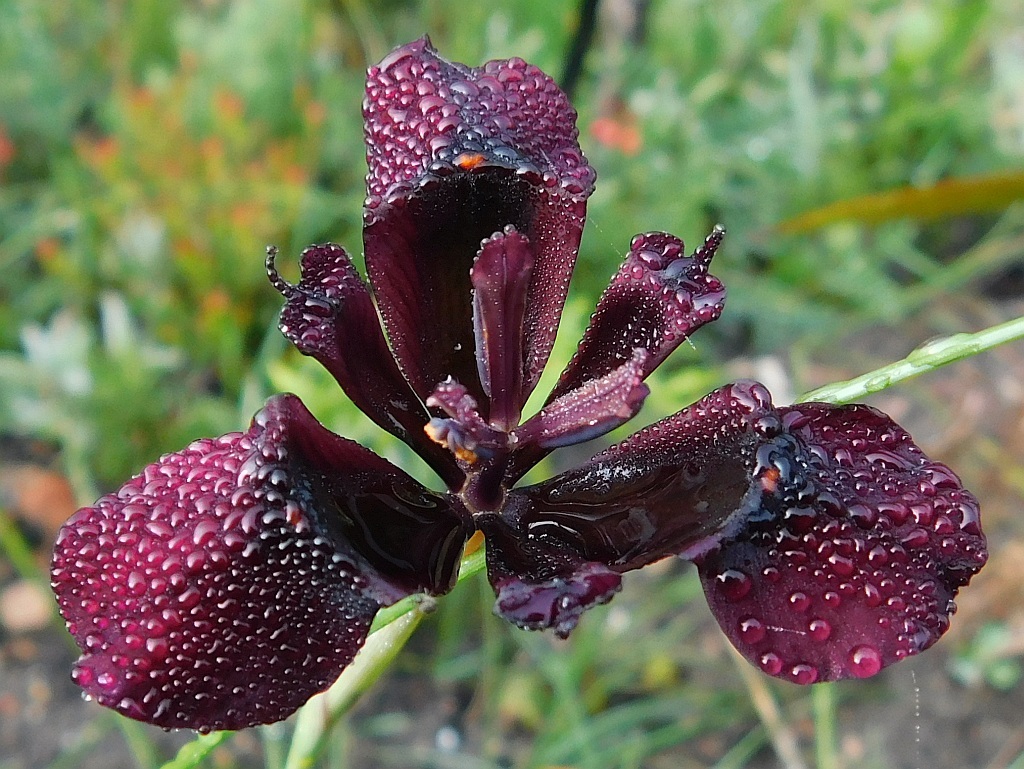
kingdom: Plantae
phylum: Tracheophyta
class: Liliopsida
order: Asparagales
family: Iridaceae
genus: Moraea
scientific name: Moraea lurida
